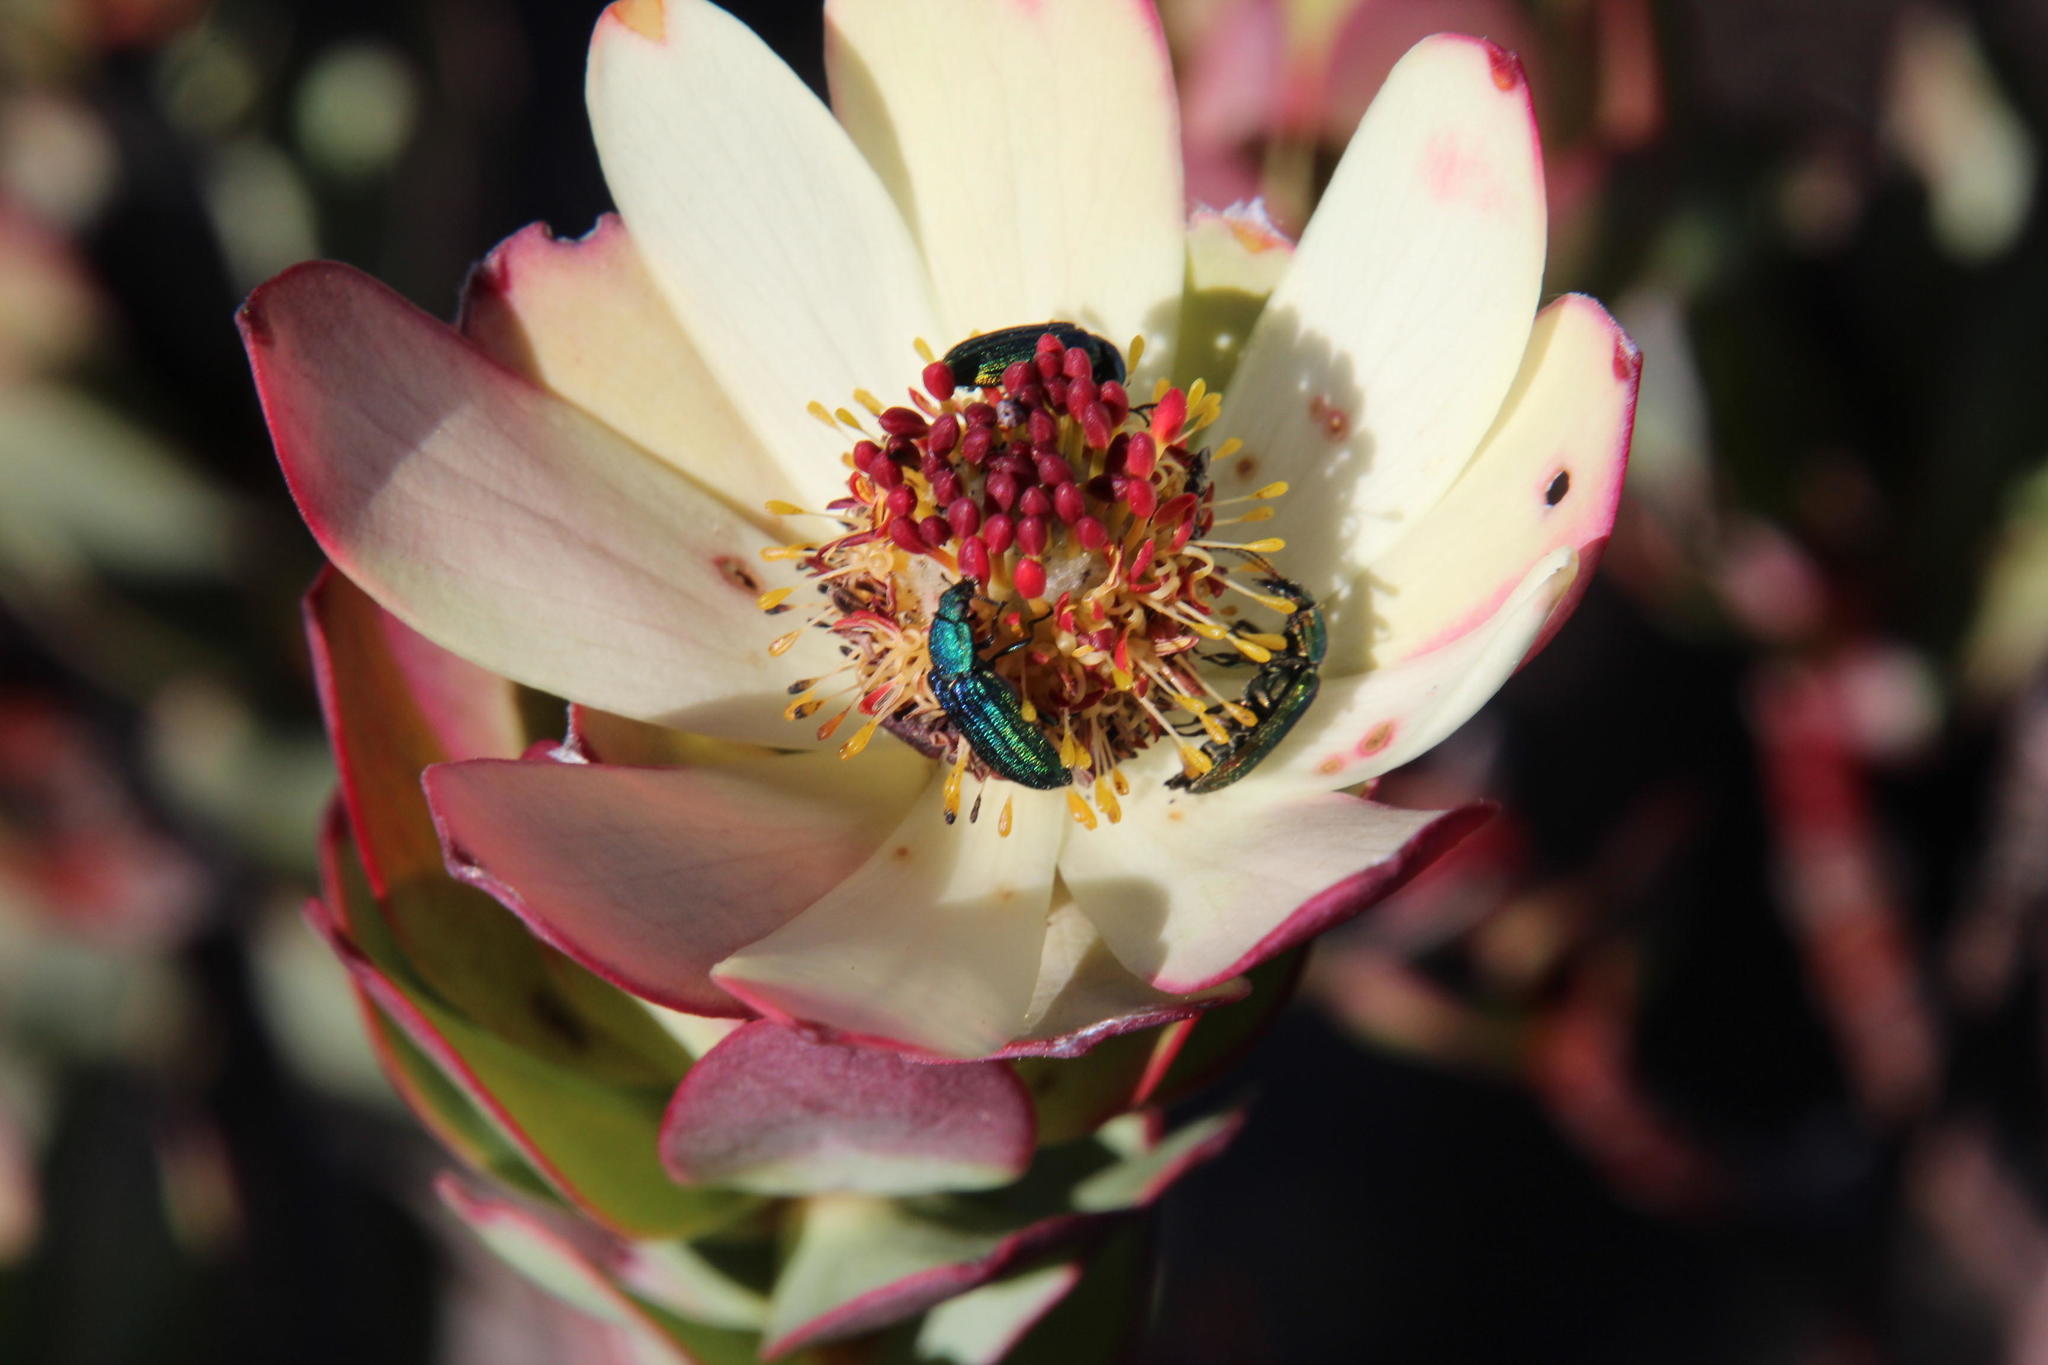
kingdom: Plantae
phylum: Tracheophyta
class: Magnoliopsida
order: Proteales
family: Proteaceae
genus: Leucadendron
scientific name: Leucadendron procerum
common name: Ivory conebush
